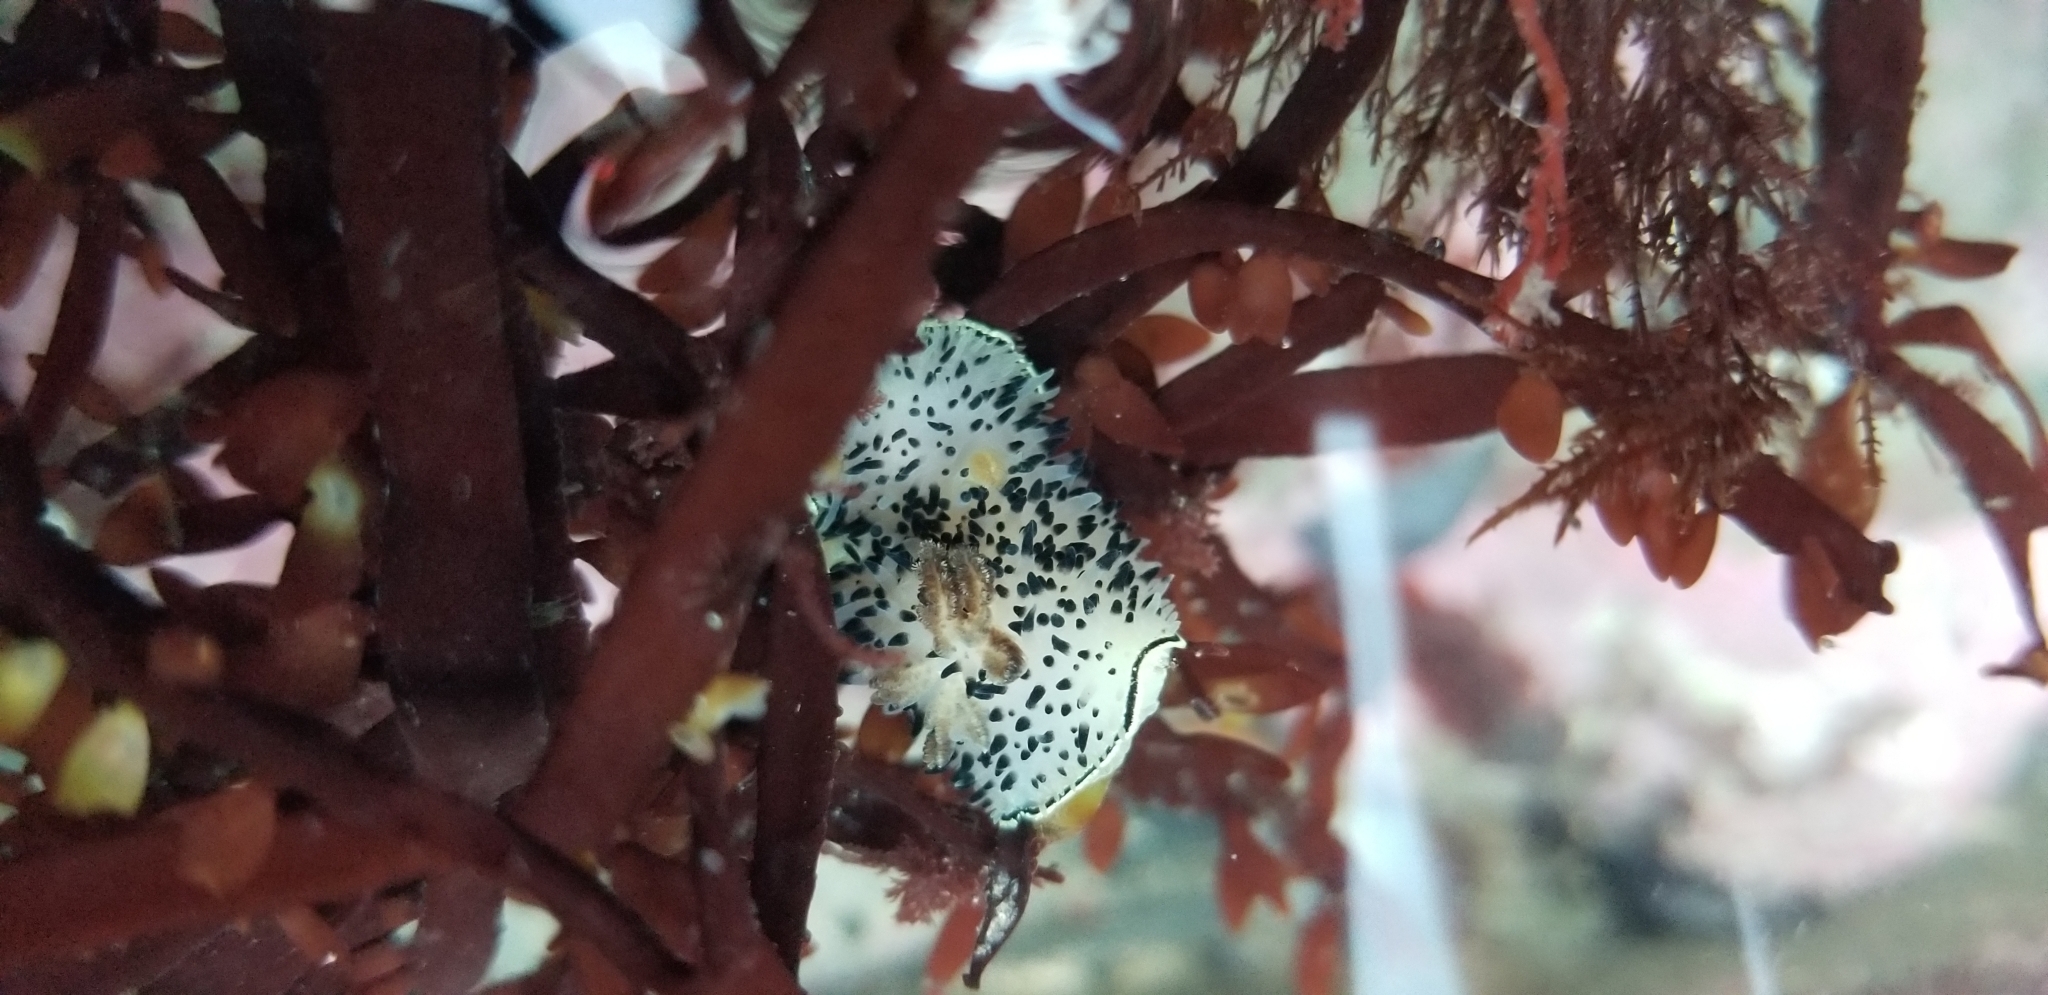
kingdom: Animalia
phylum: Mollusca
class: Gastropoda
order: Nudibranchia
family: Onchidorididae
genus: Acanthodoris
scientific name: Acanthodoris rhodoceras
